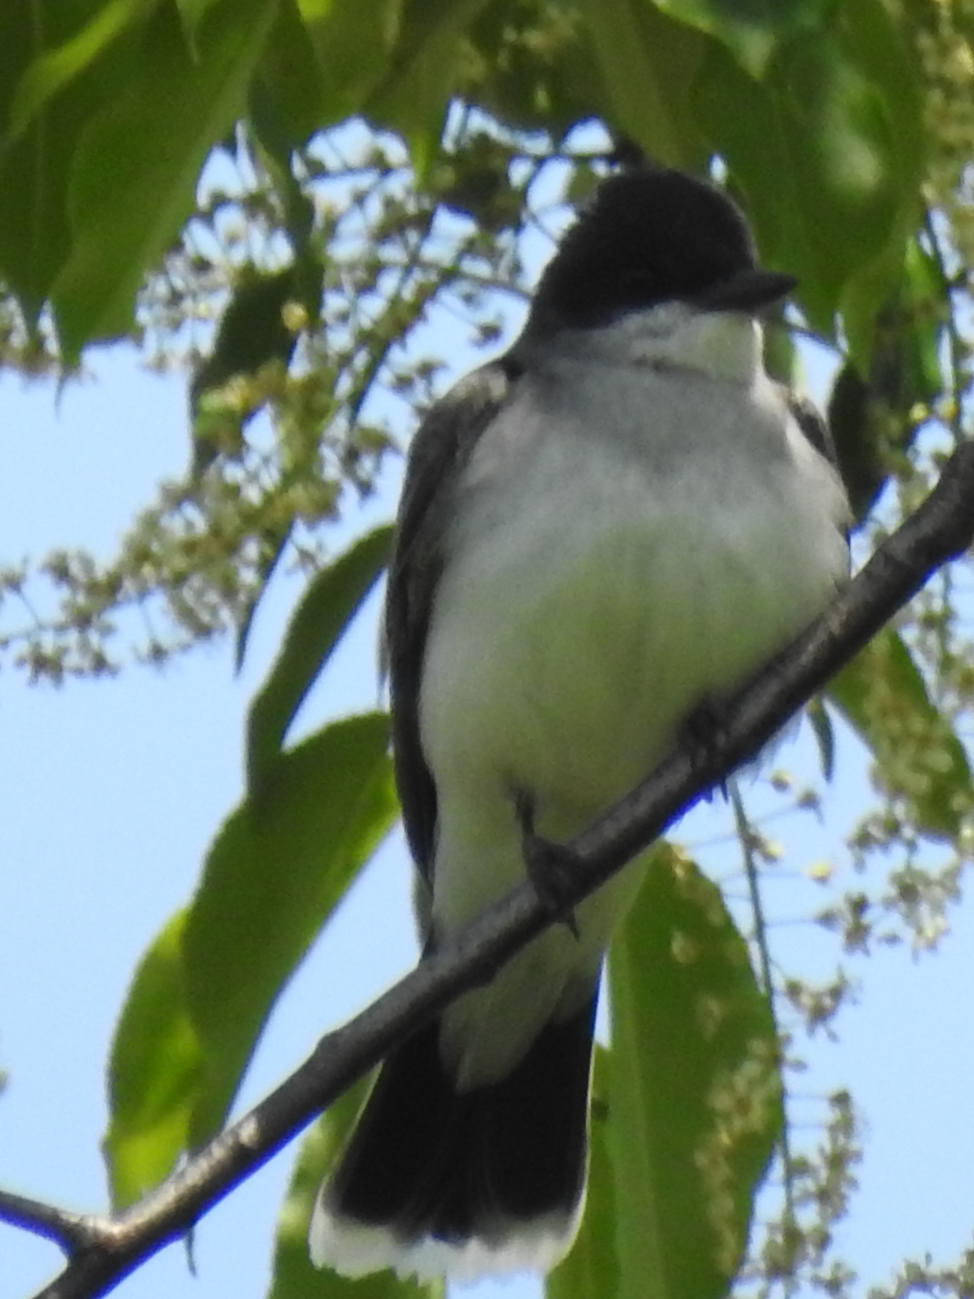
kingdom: Animalia
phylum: Chordata
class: Aves
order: Passeriformes
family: Tyrannidae
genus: Tyrannus
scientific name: Tyrannus tyrannus
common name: Eastern kingbird
